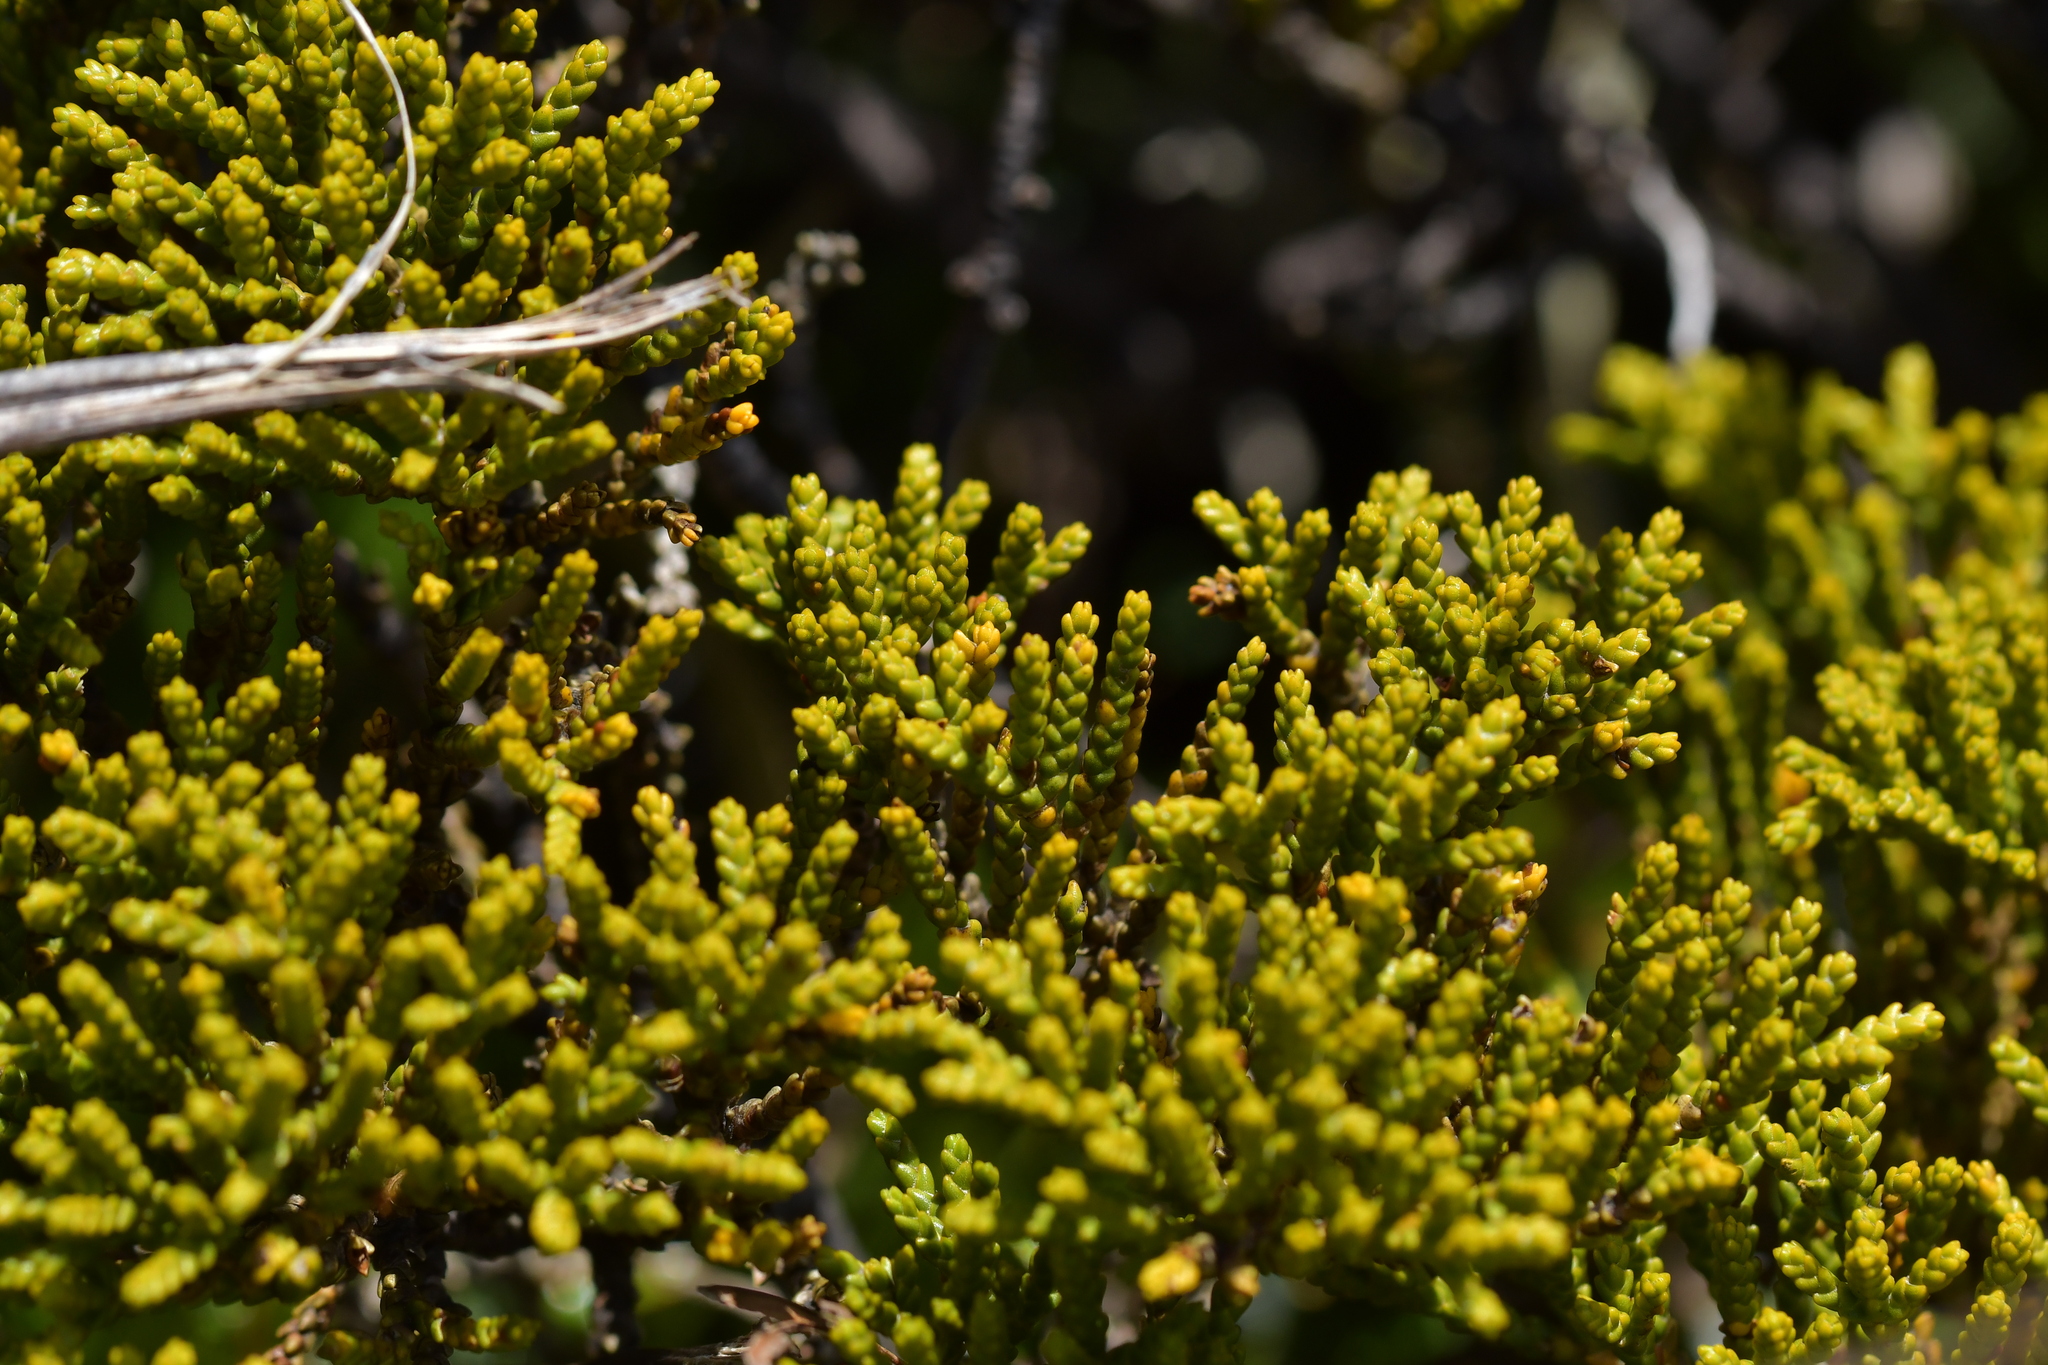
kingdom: Plantae
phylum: Tracheophyta
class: Magnoliopsida
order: Lamiales
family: Plantaginaceae
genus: Veronica
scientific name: Veronica tetragona
